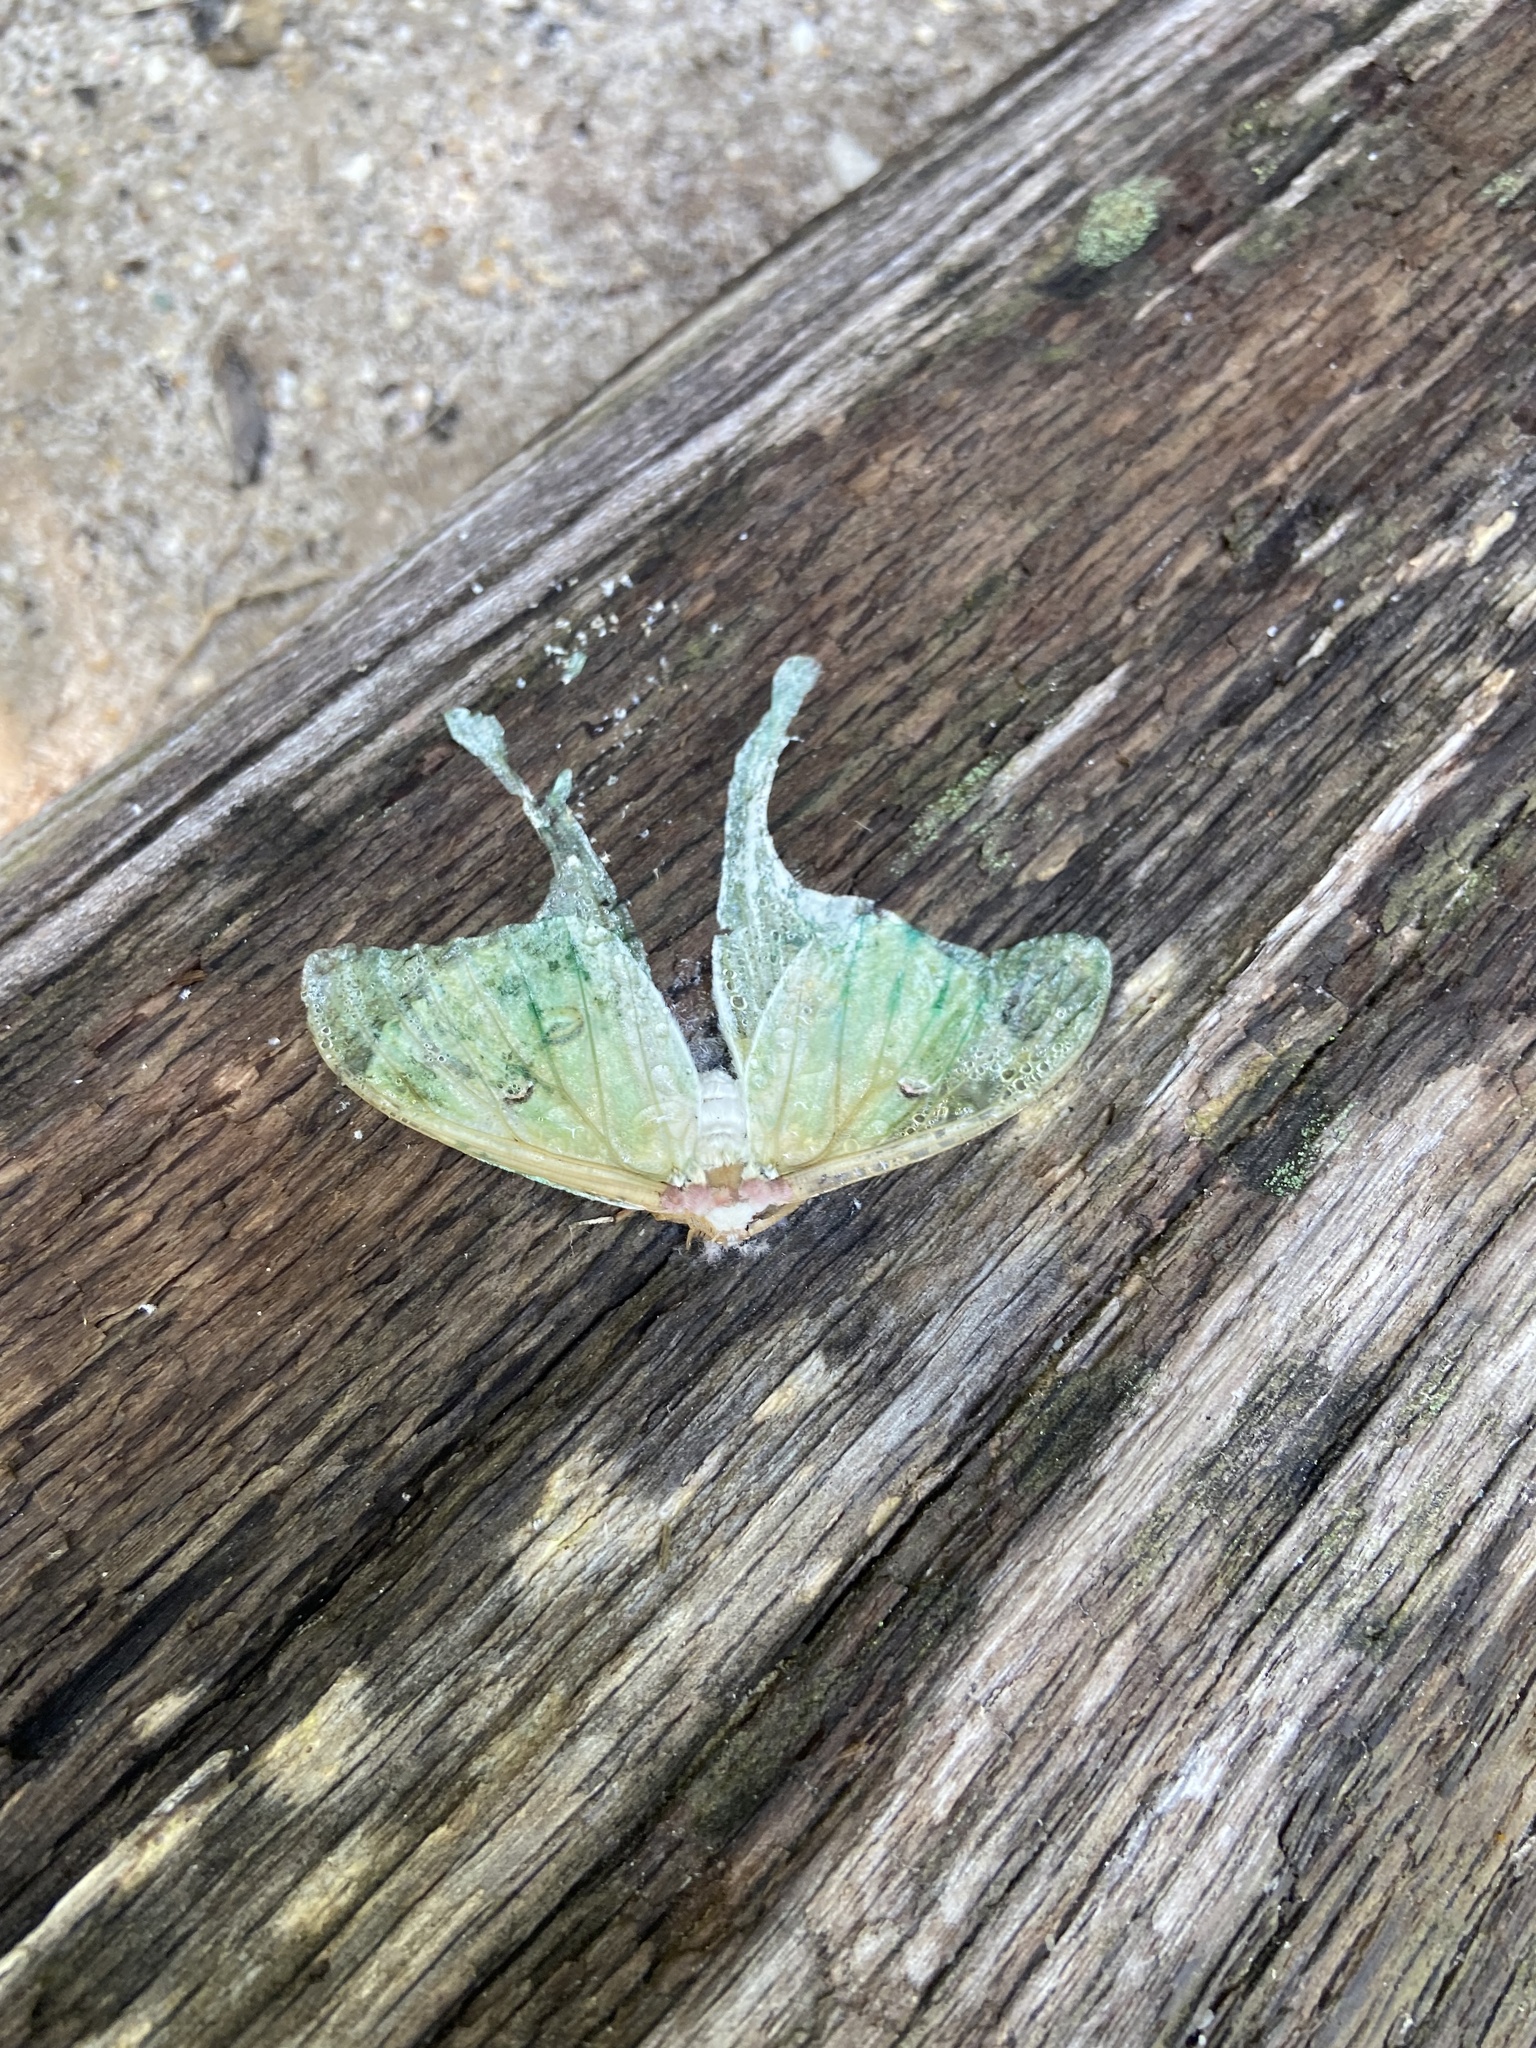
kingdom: Animalia
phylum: Arthropoda
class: Insecta
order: Lepidoptera
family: Saturniidae
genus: Actias
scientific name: Actias luna
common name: Luna moth
